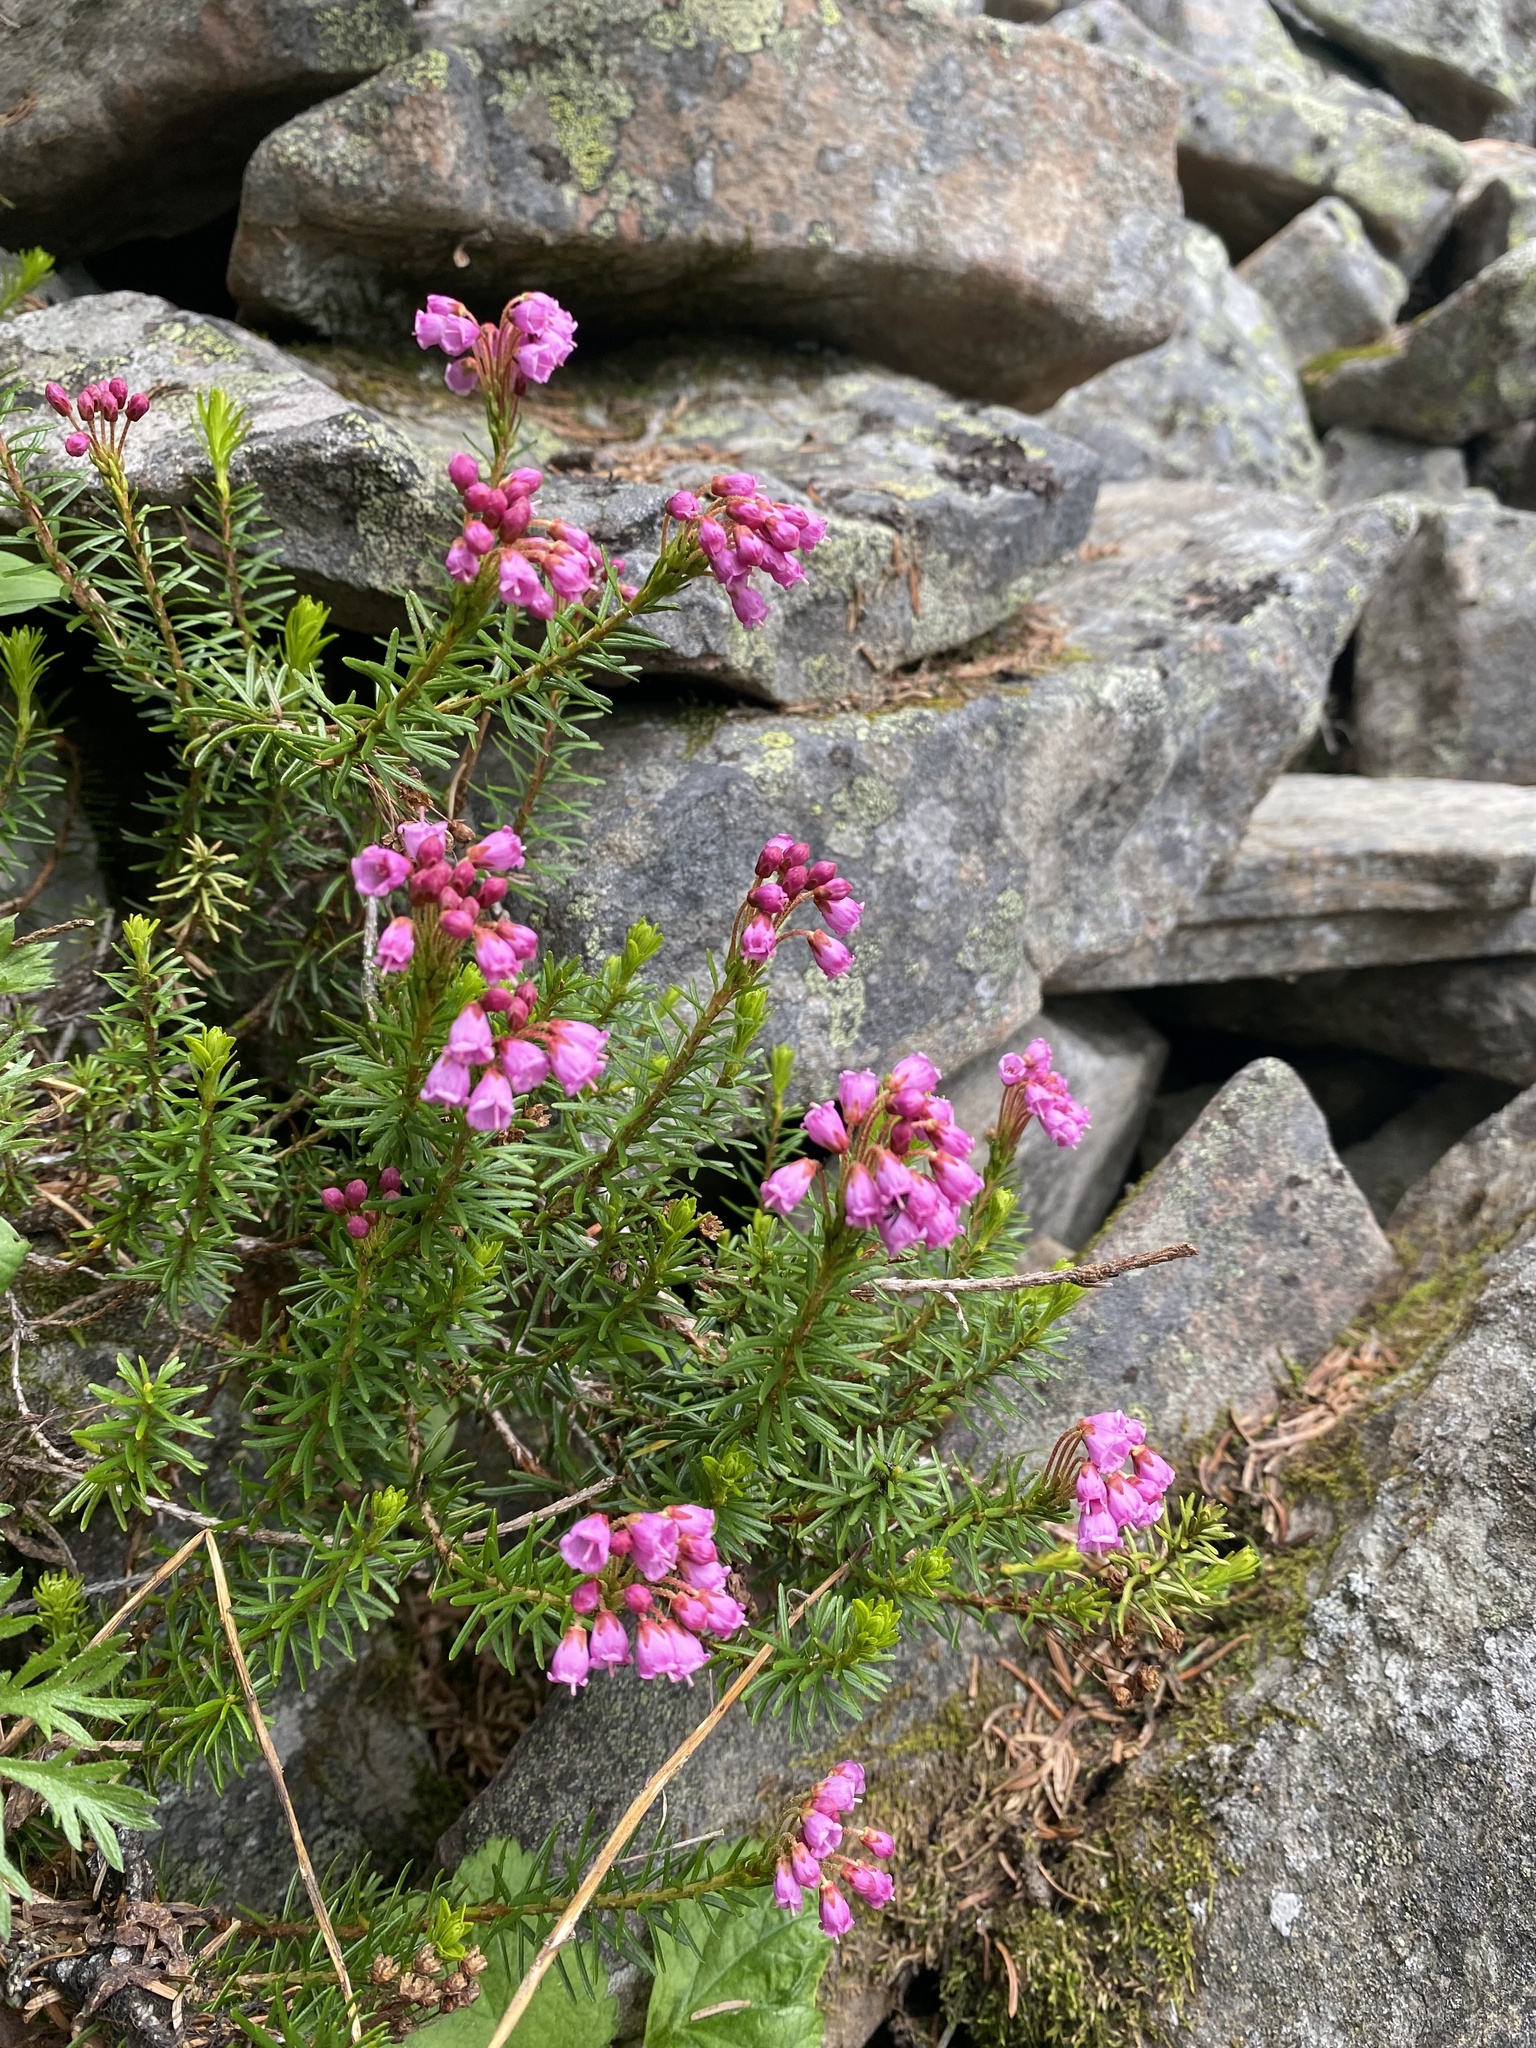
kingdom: Plantae
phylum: Tracheophyta
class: Magnoliopsida
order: Ericales
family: Ericaceae
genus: Phyllodoce
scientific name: Phyllodoce empetriformis
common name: Pink mountain heather
